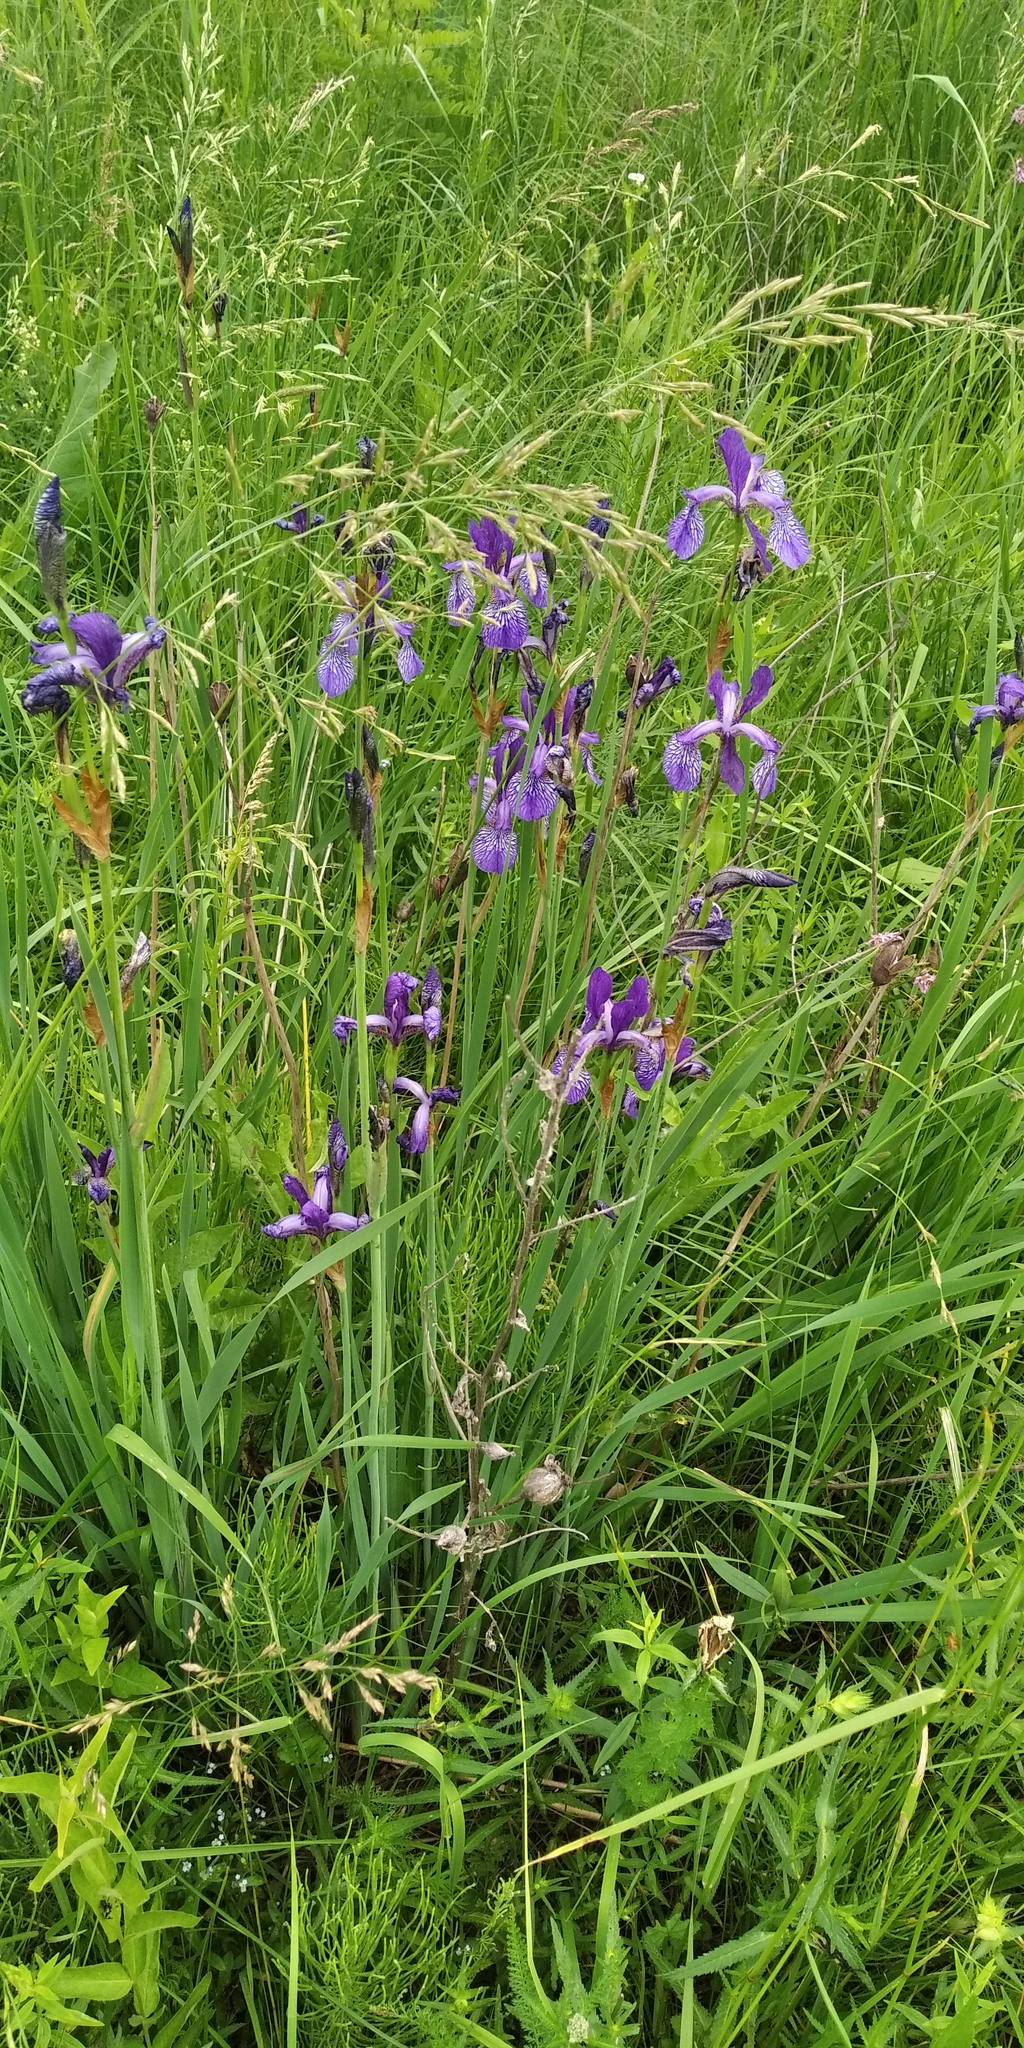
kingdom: Plantae
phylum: Tracheophyta
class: Liliopsida
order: Asparagales
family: Iridaceae
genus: Iris
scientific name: Iris sibirica
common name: Siberian iris
